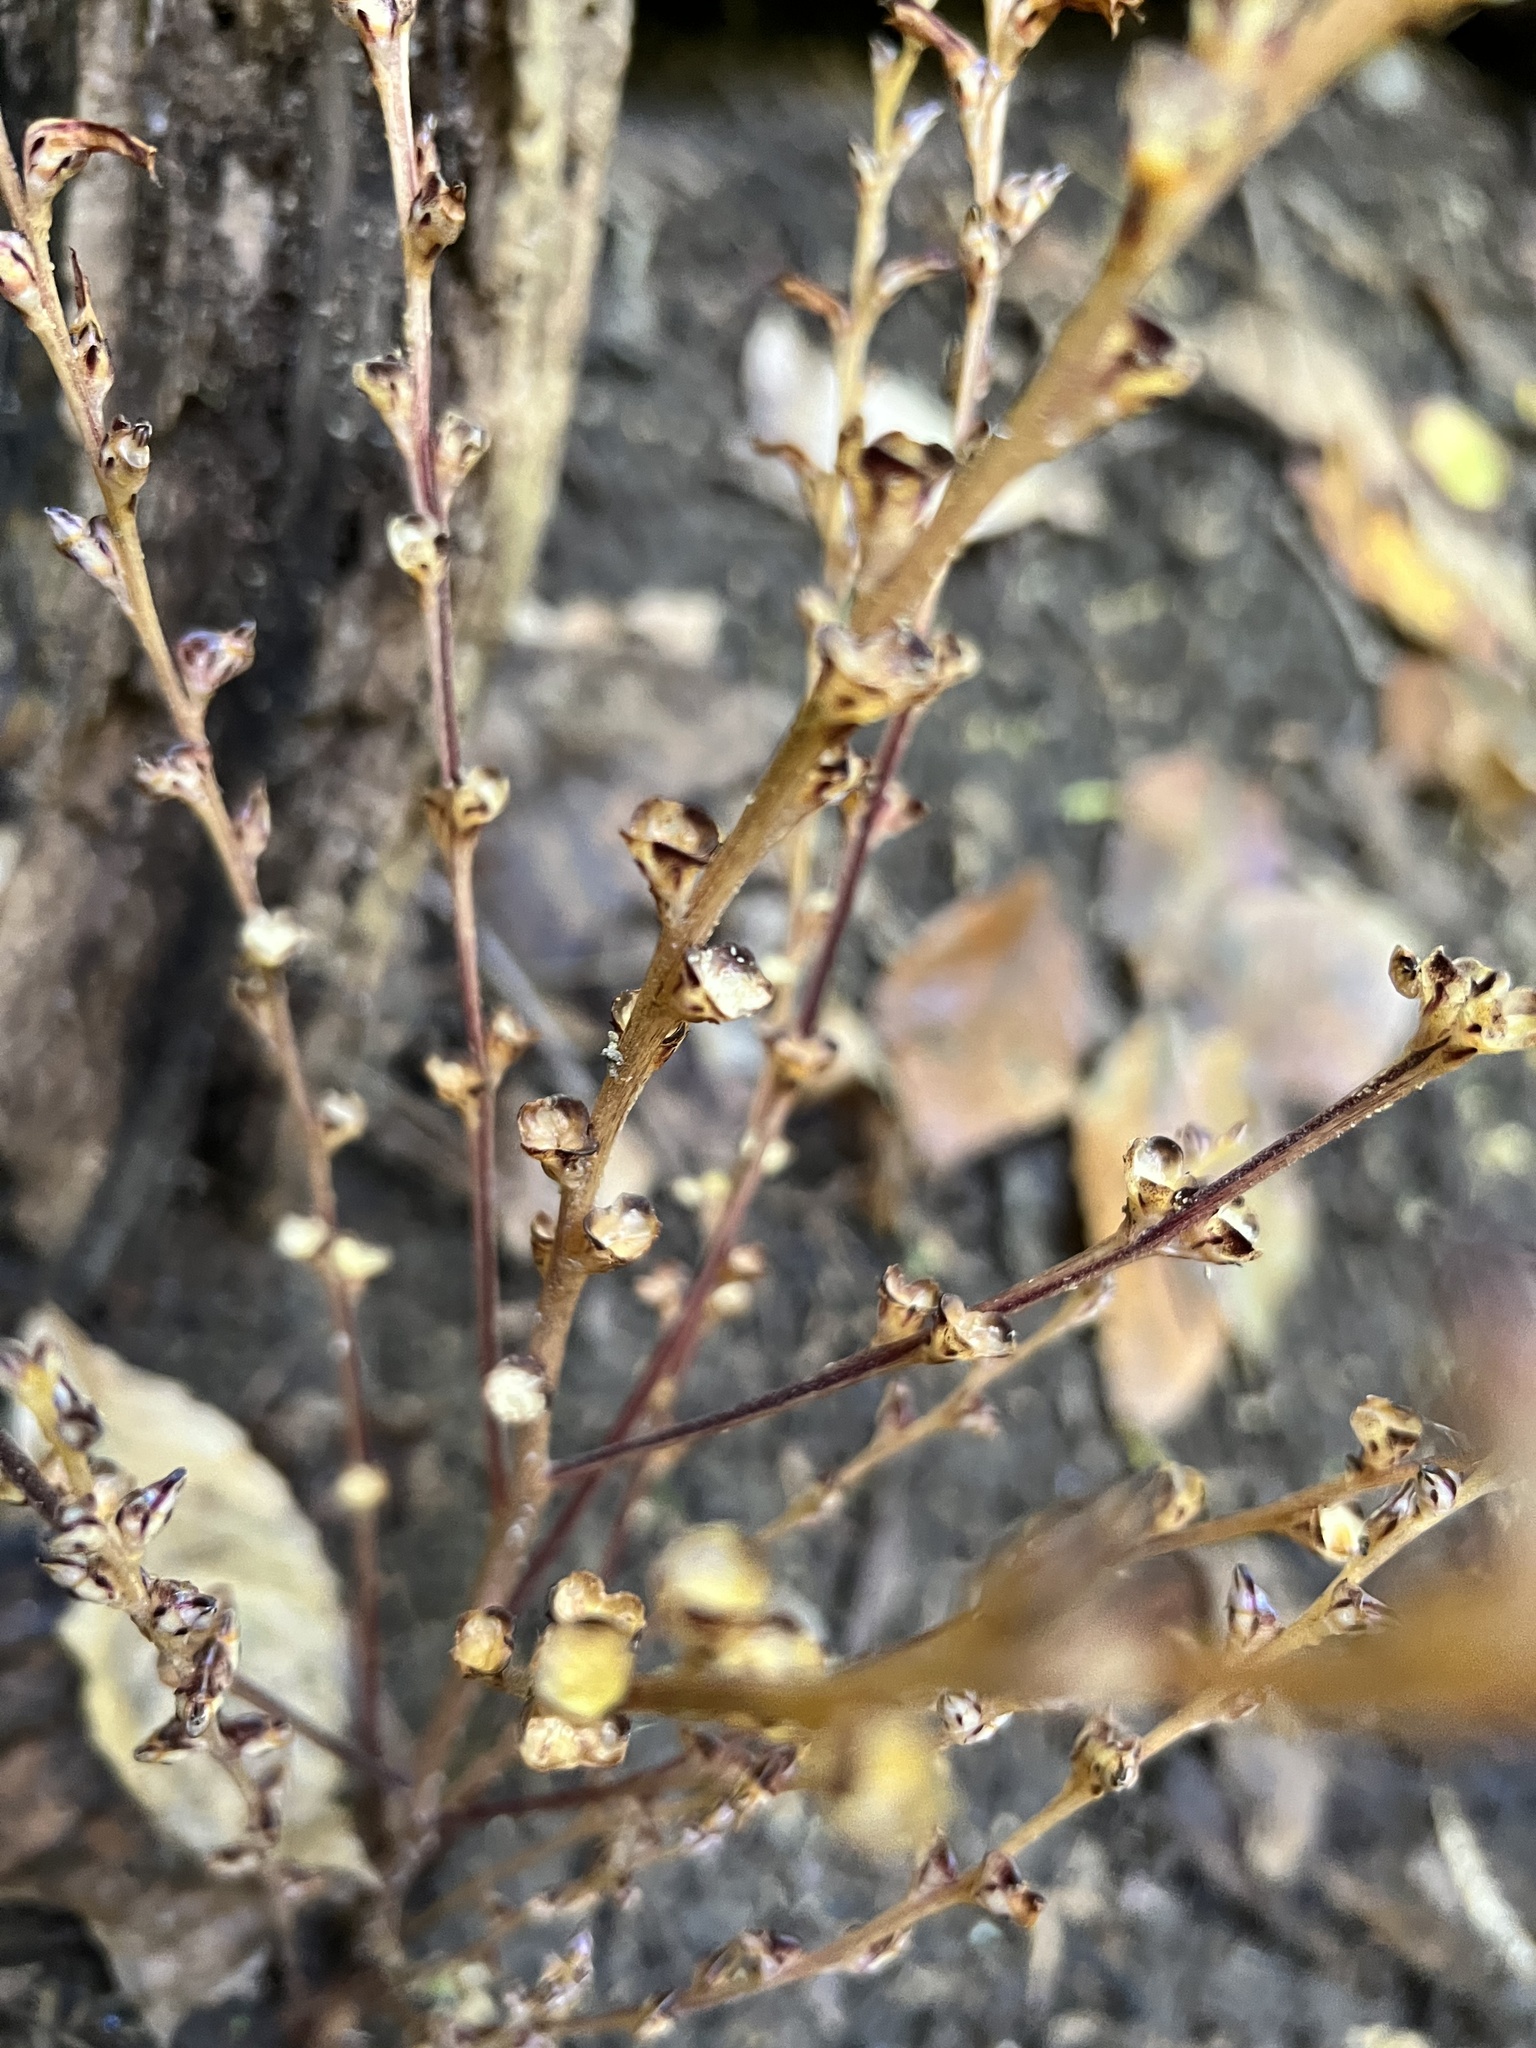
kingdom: Plantae
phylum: Tracheophyta
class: Magnoliopsida
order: Lamiales
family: Orobanchaceae
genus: Epifagus
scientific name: Epifagus virginiana
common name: Beechdrops
